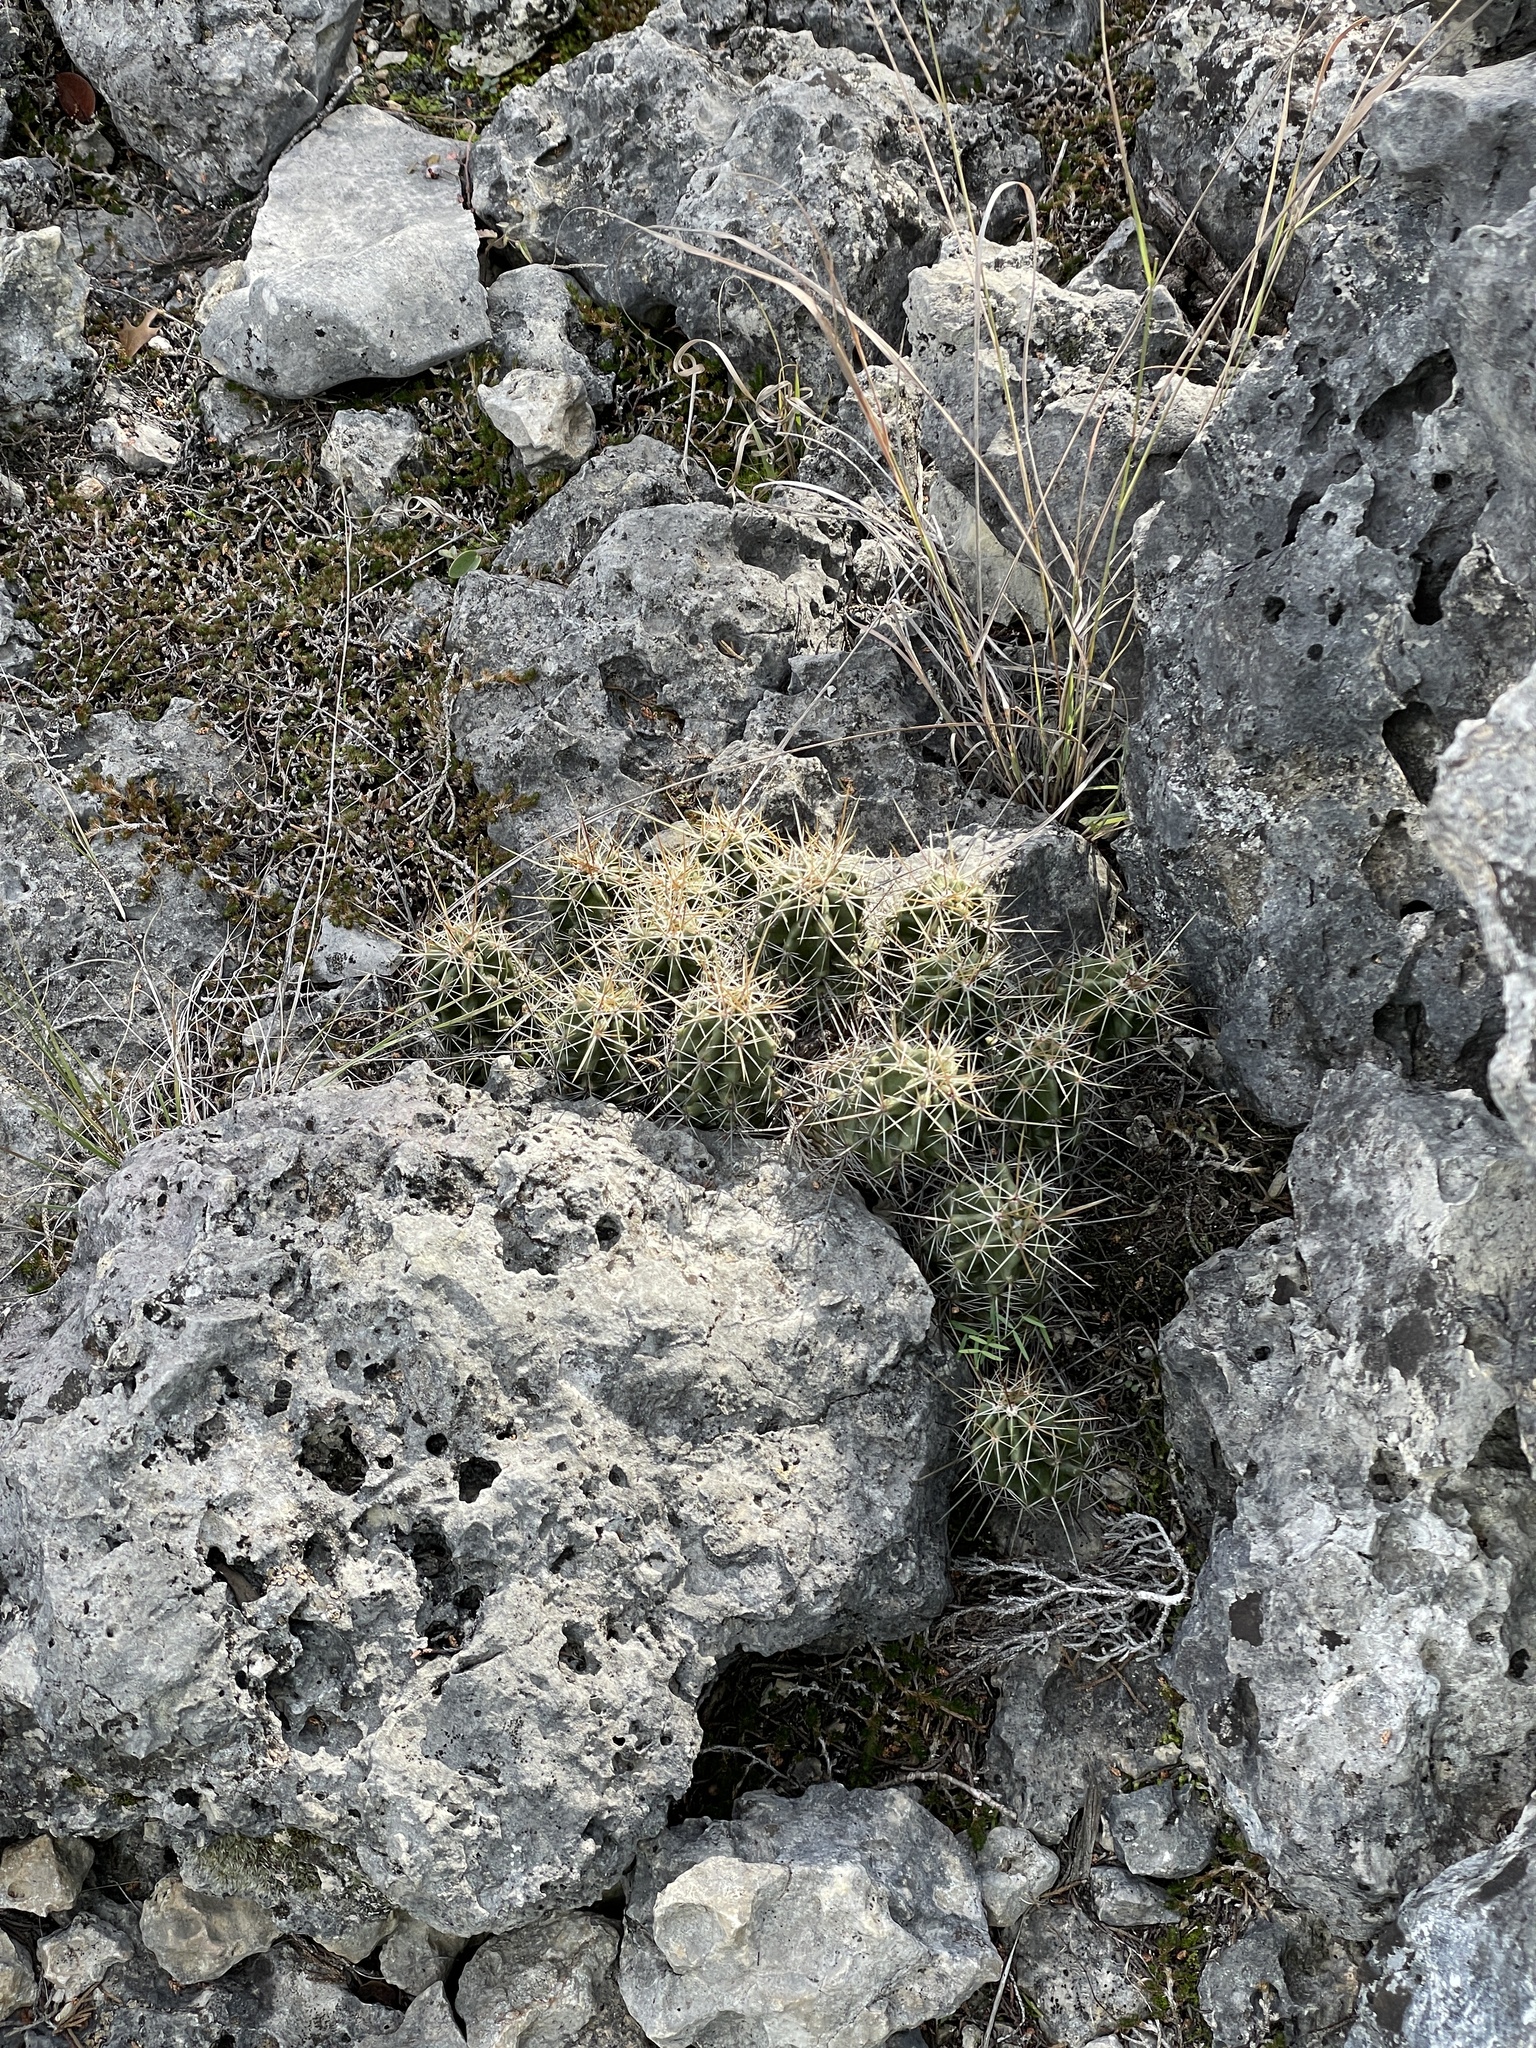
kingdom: Plantae
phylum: Tracheophyta
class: Magnoliopsida
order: Caryophyllales
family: Cactaceae
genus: Echinocereus
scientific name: Echinocereus enneacanthus
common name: Pitaya
